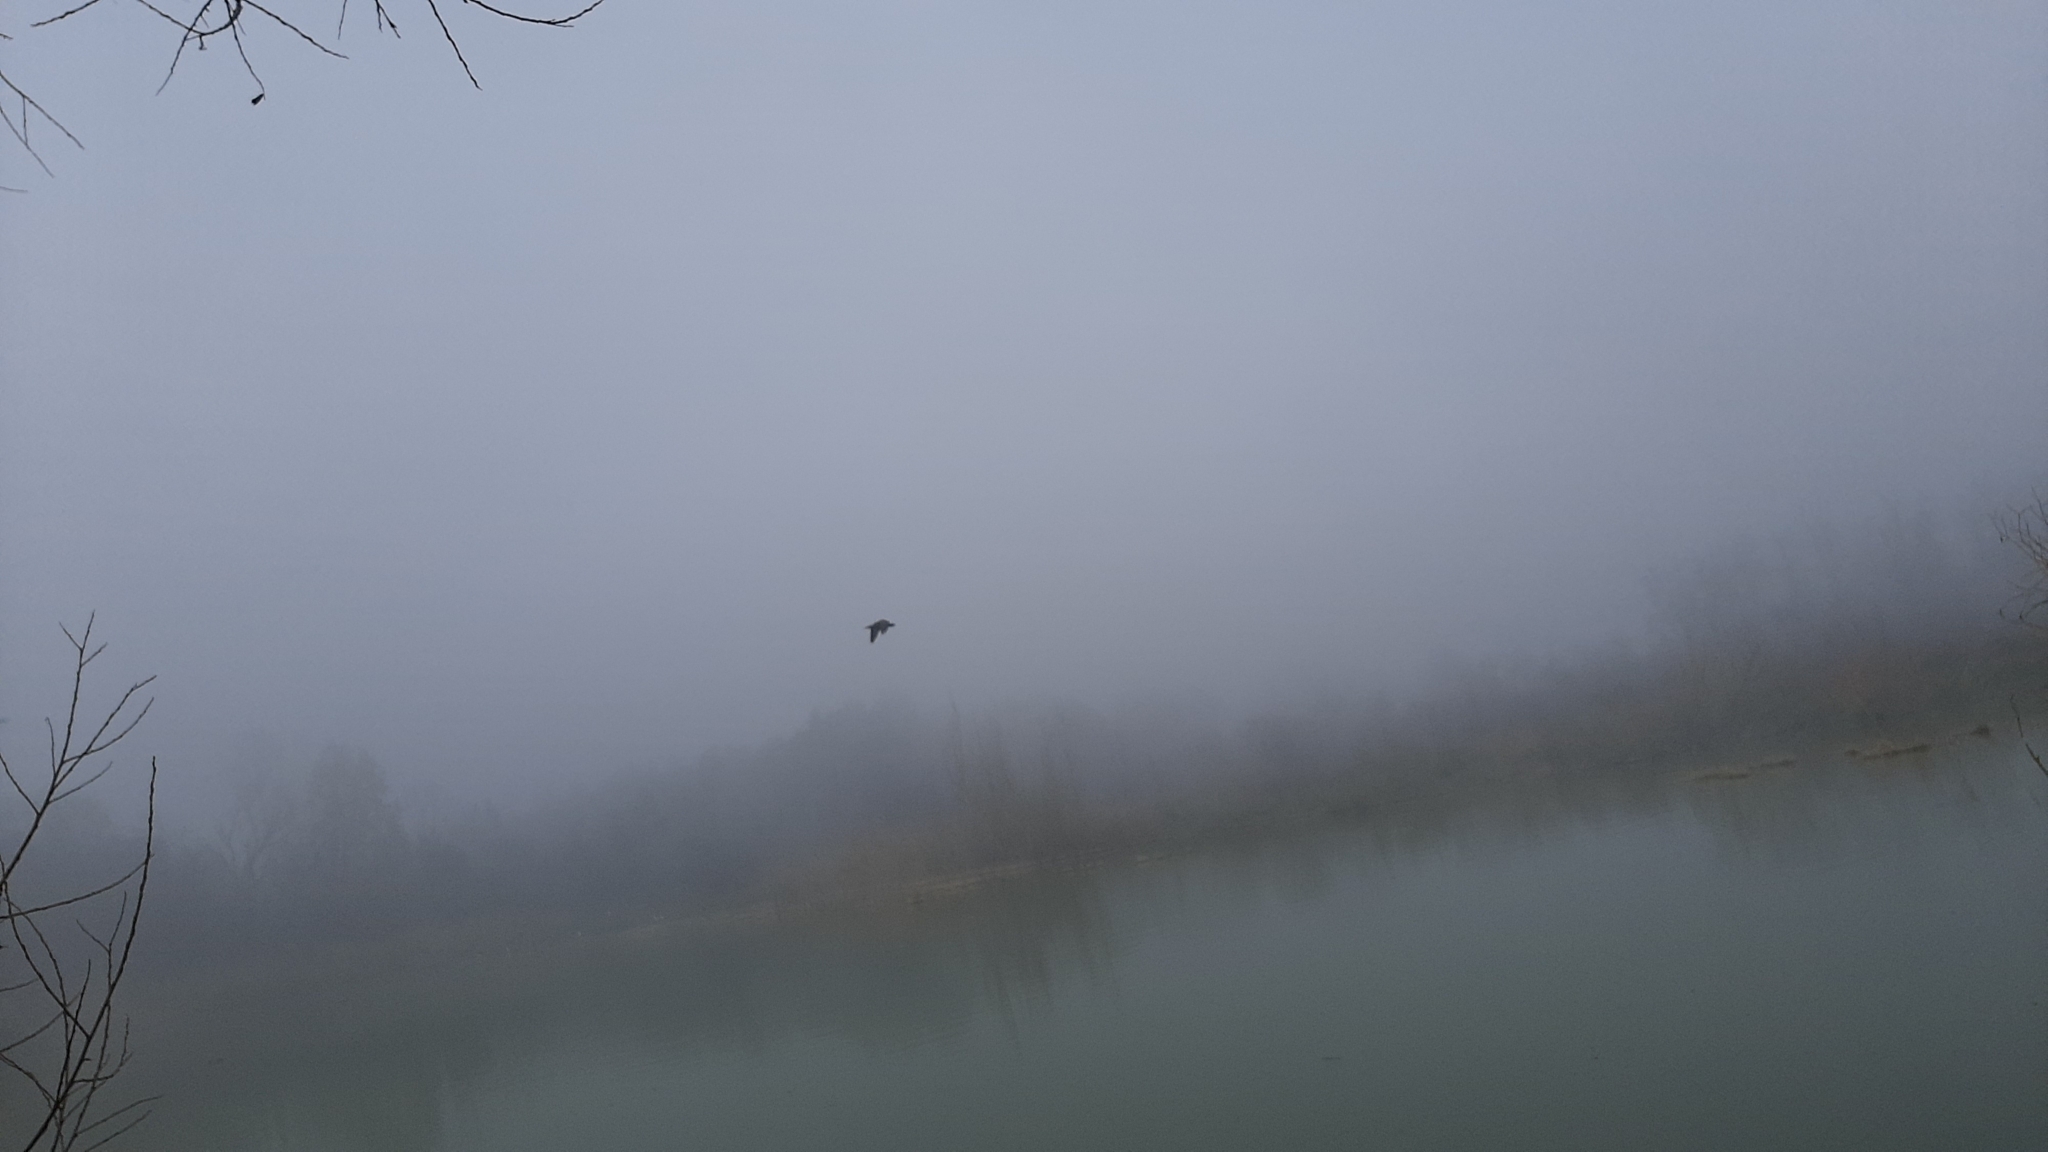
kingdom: Animalia
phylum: Chordata
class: Aves
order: Suliformes
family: Phalacrocoracidae
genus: Phalacrocorax
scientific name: Phalacrocorax carbo
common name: Great cormorant
